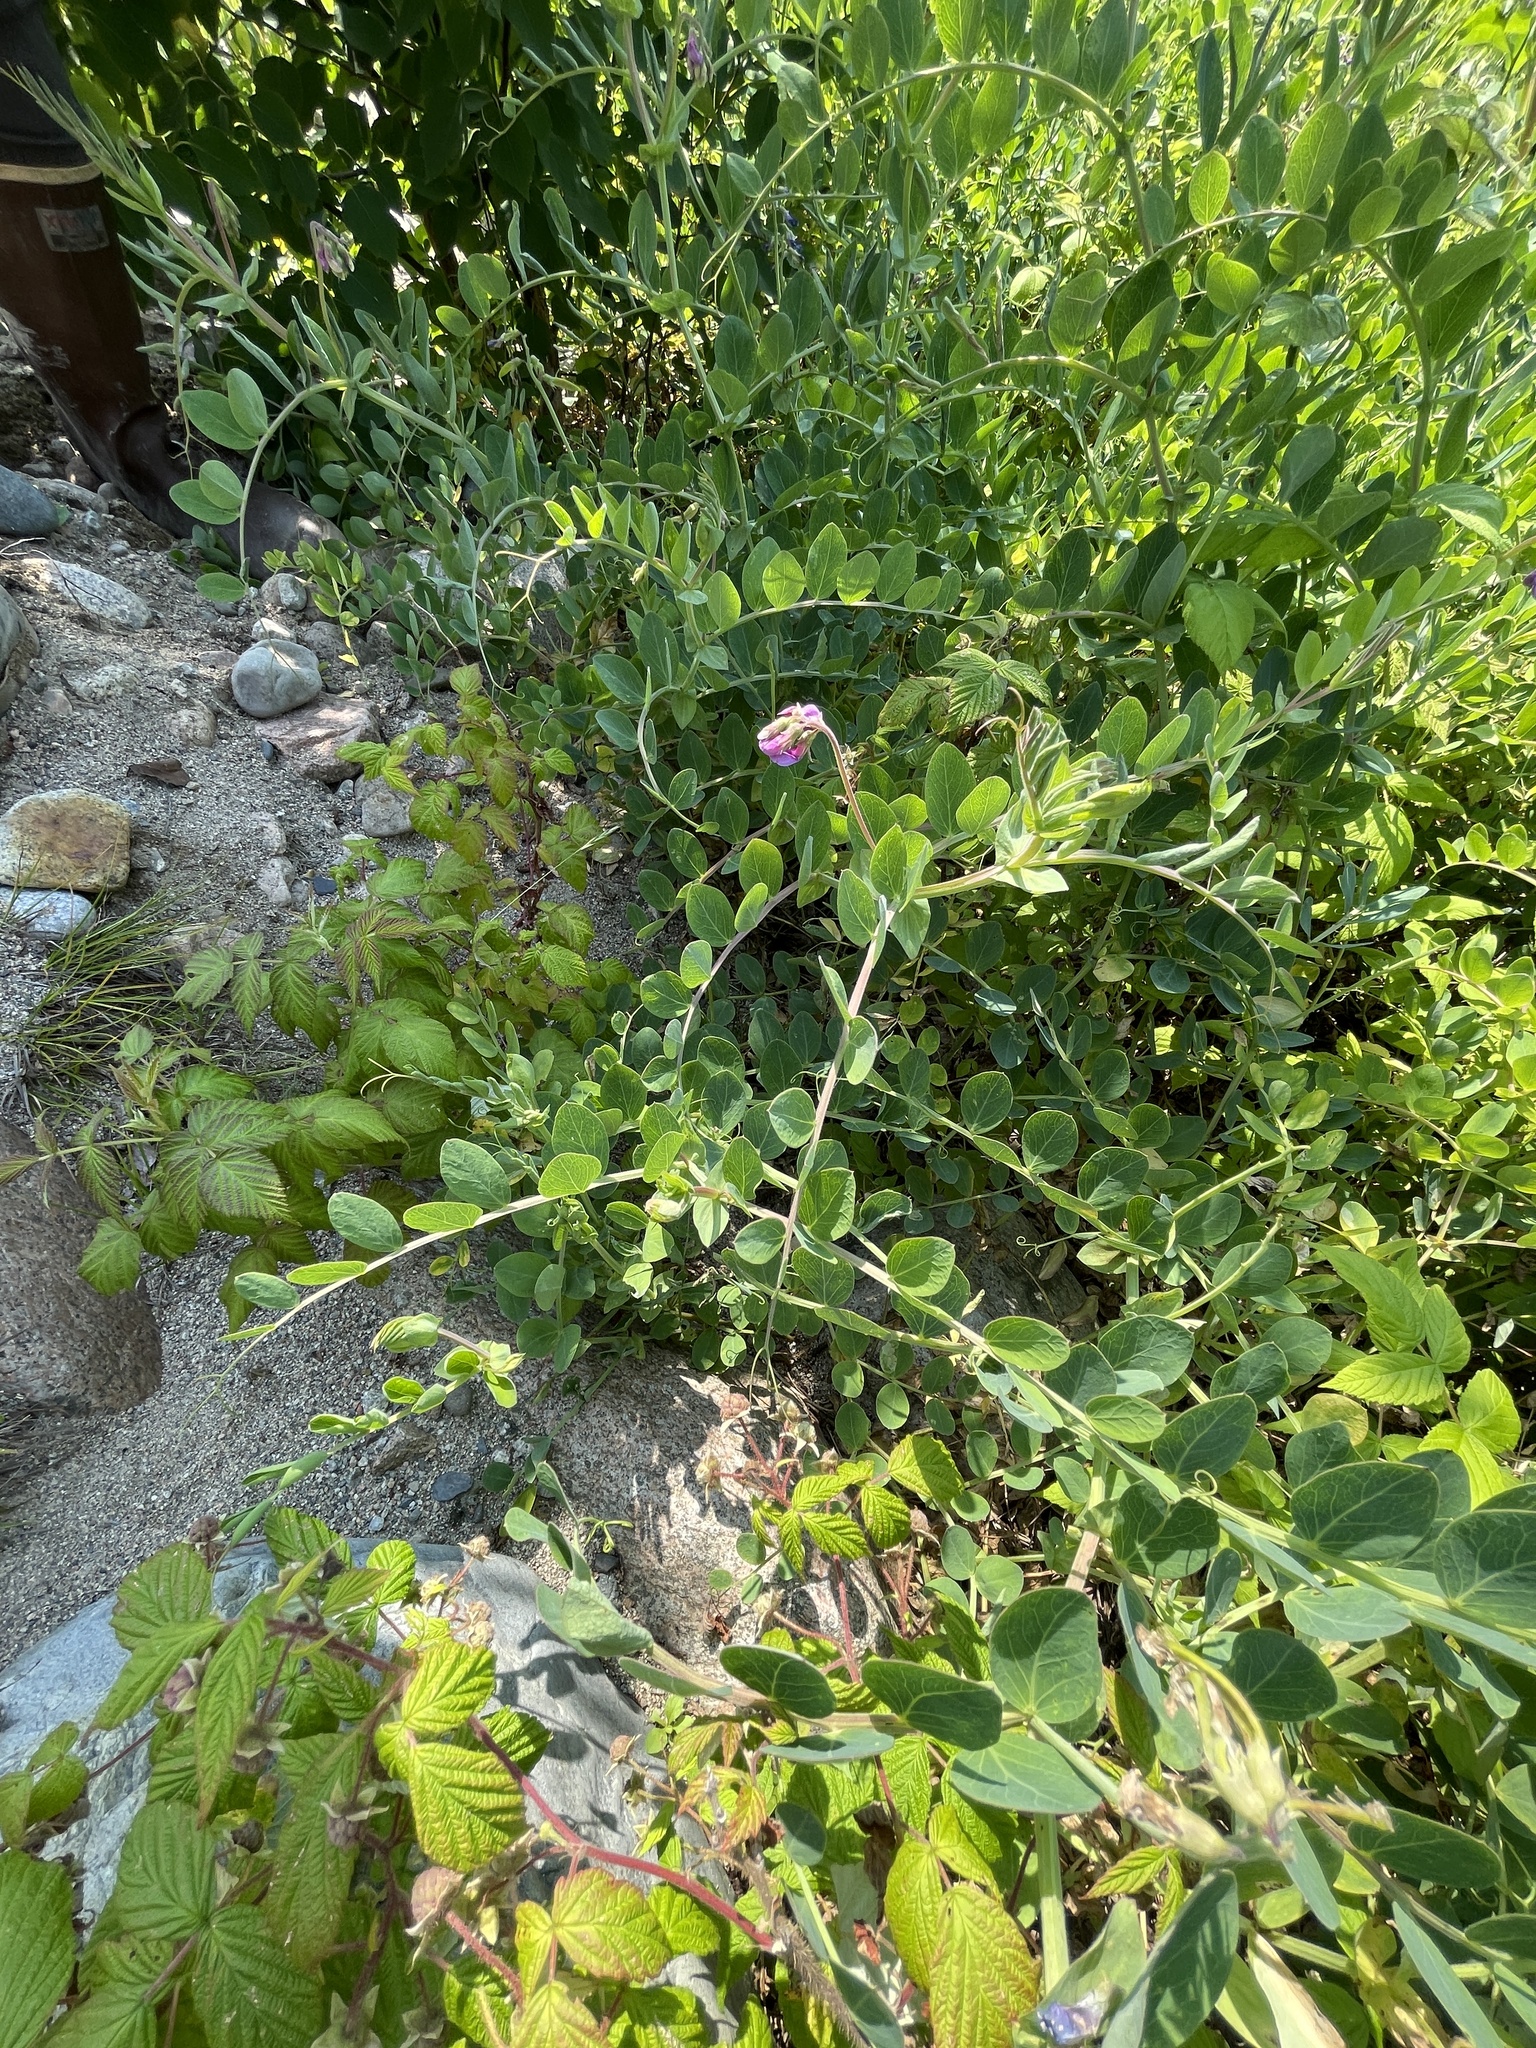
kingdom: Plantae
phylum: Tracheophyta
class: Magnoliopsida
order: Fabales
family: Fabaceae
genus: Lathyrus
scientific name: Lathyrus japonicus
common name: Sea pea
